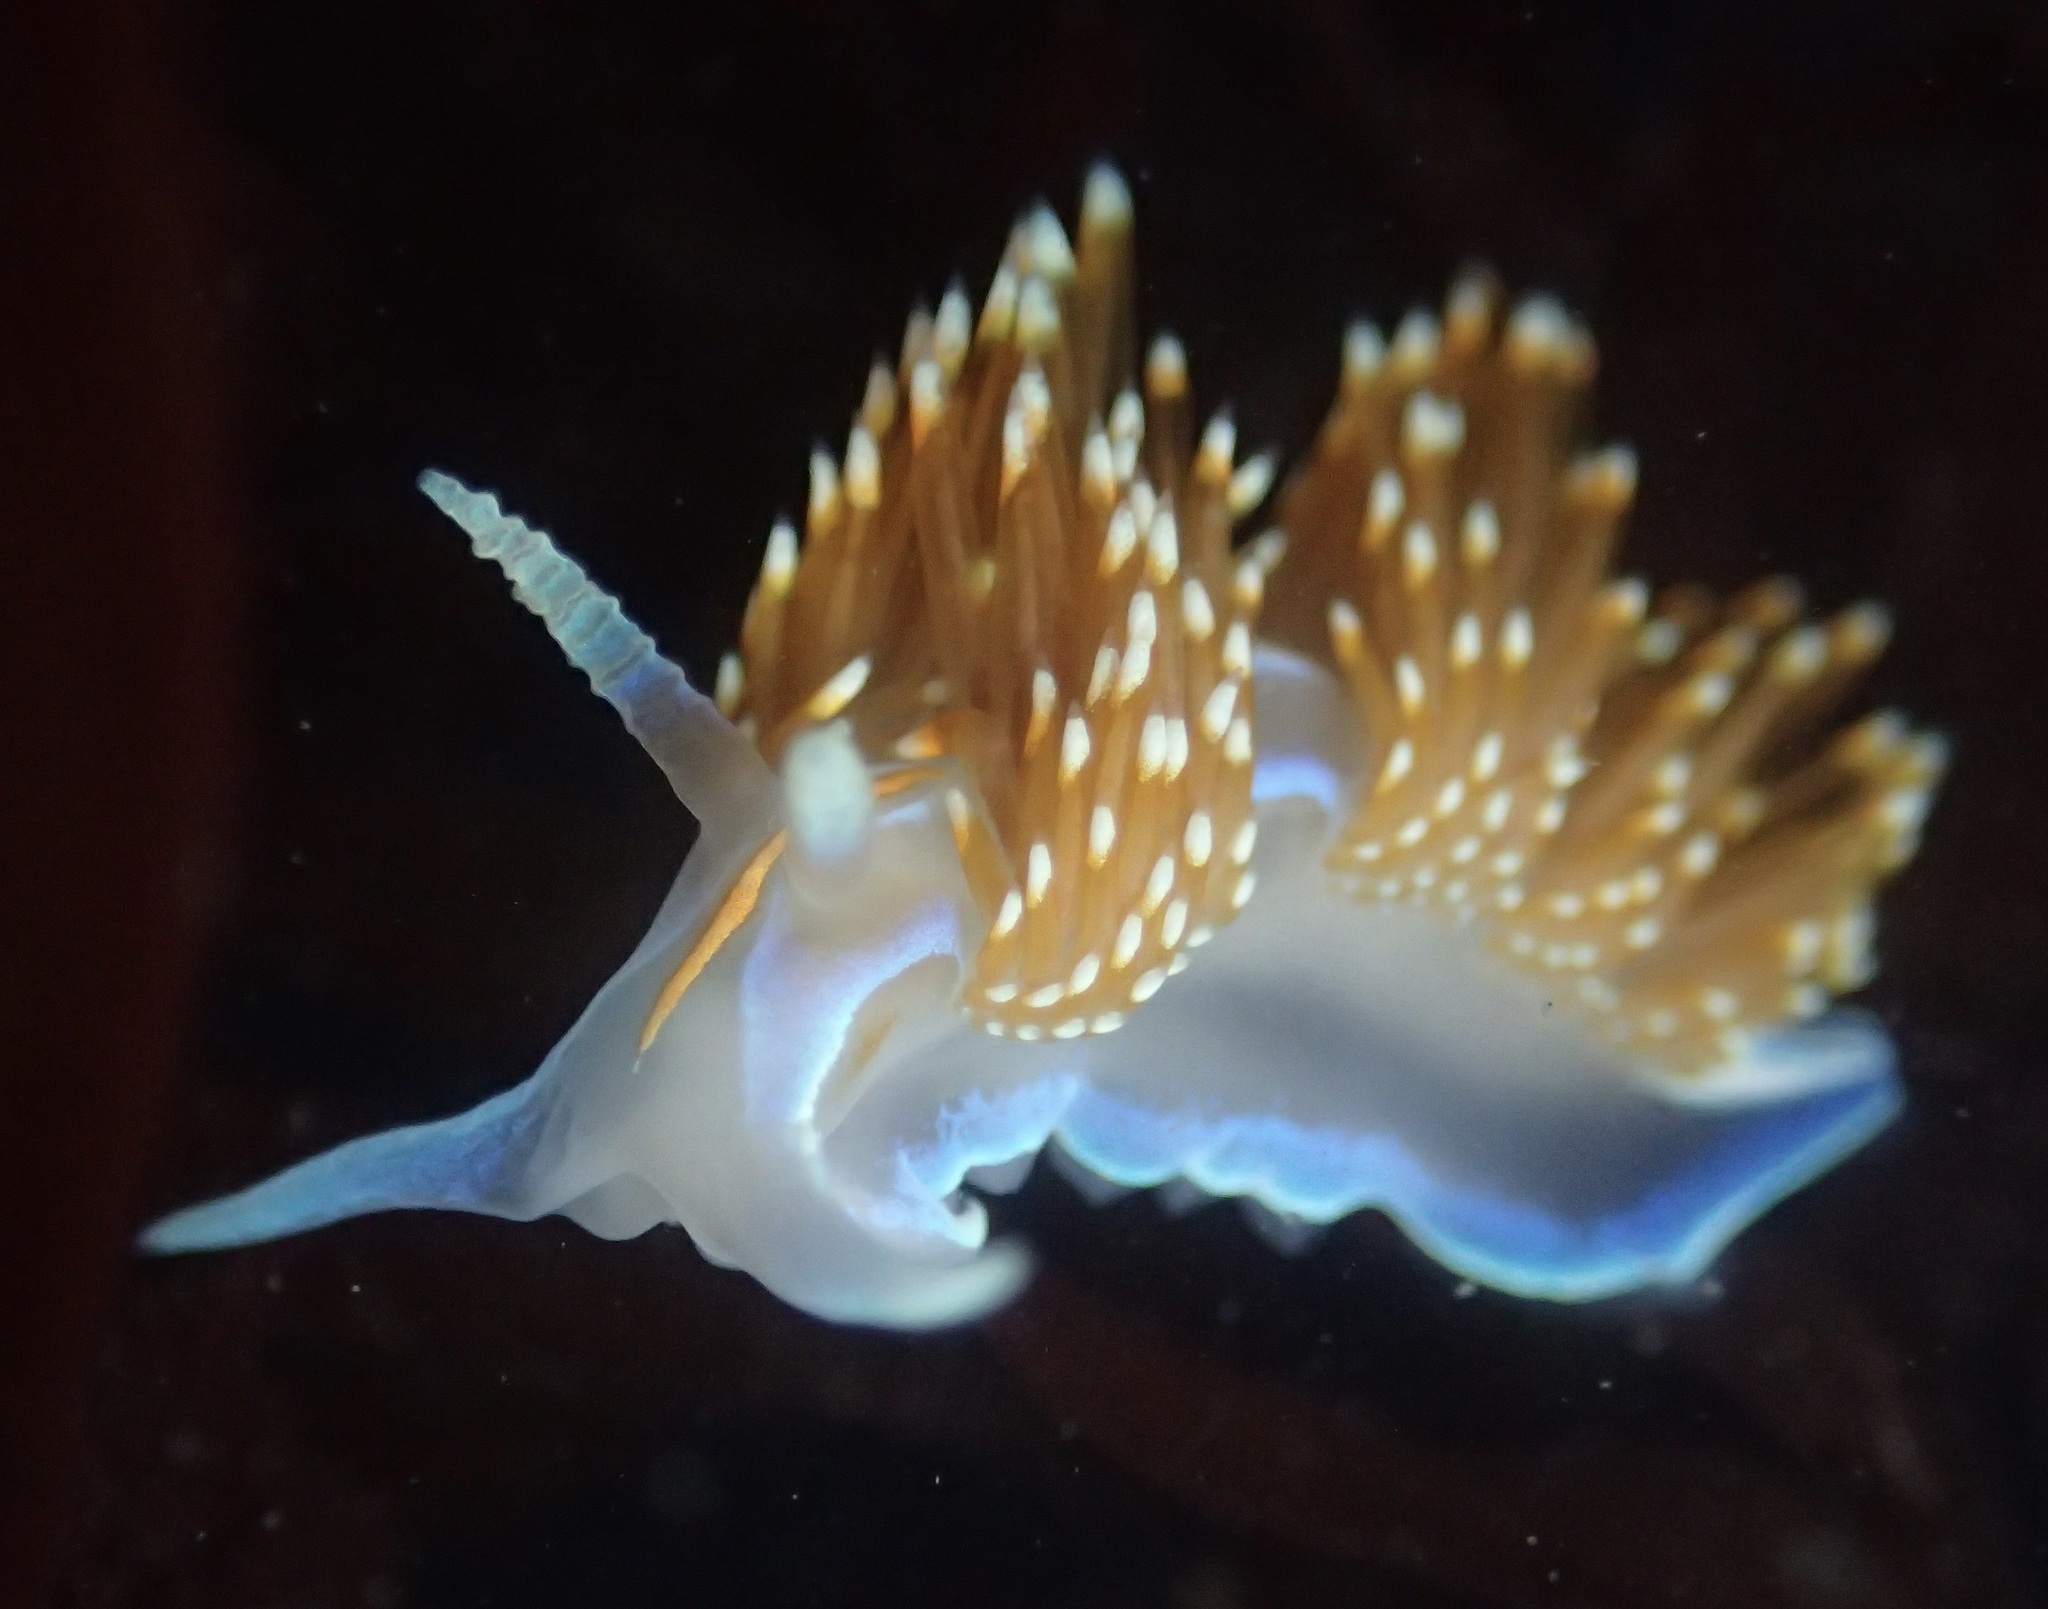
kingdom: Animalia
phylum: Mollusca
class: Gastropoda
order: Nudibranchia
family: Myrrhinidae
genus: Hermissenda
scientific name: Hermissenda opalescens
